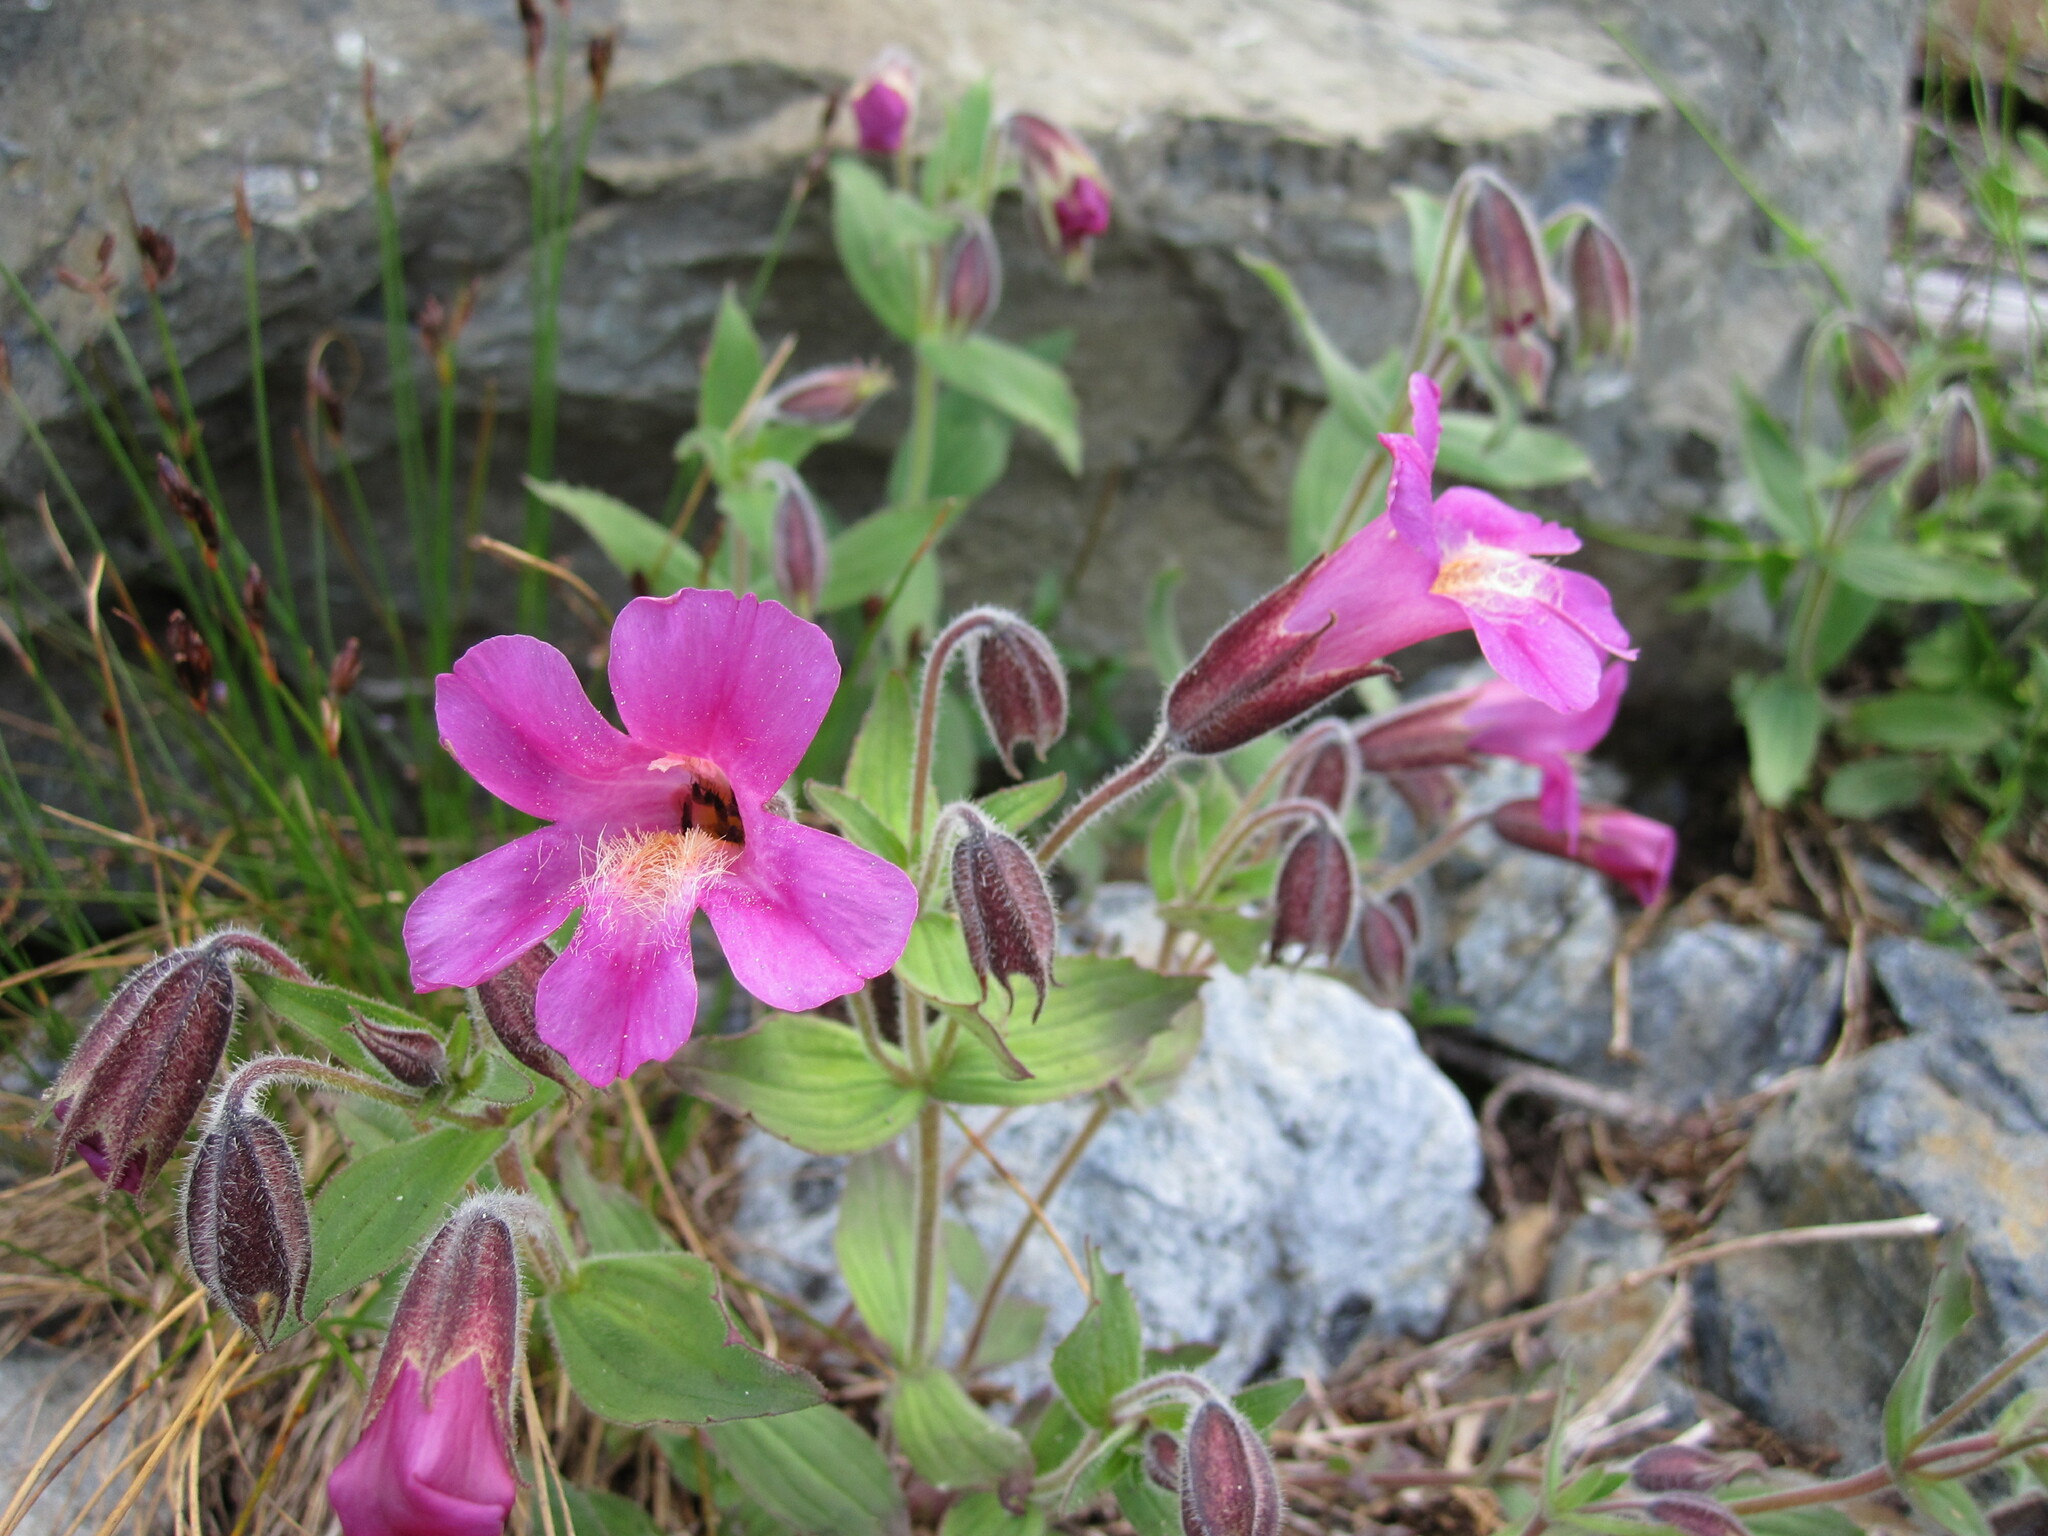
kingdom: Plantae
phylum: Tracheophyta
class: Magnoliopsida
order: Lamiales
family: Phrymaceae
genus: Erythranthe
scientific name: Erythranthe lewisii
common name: Lewis's monkey-flower
